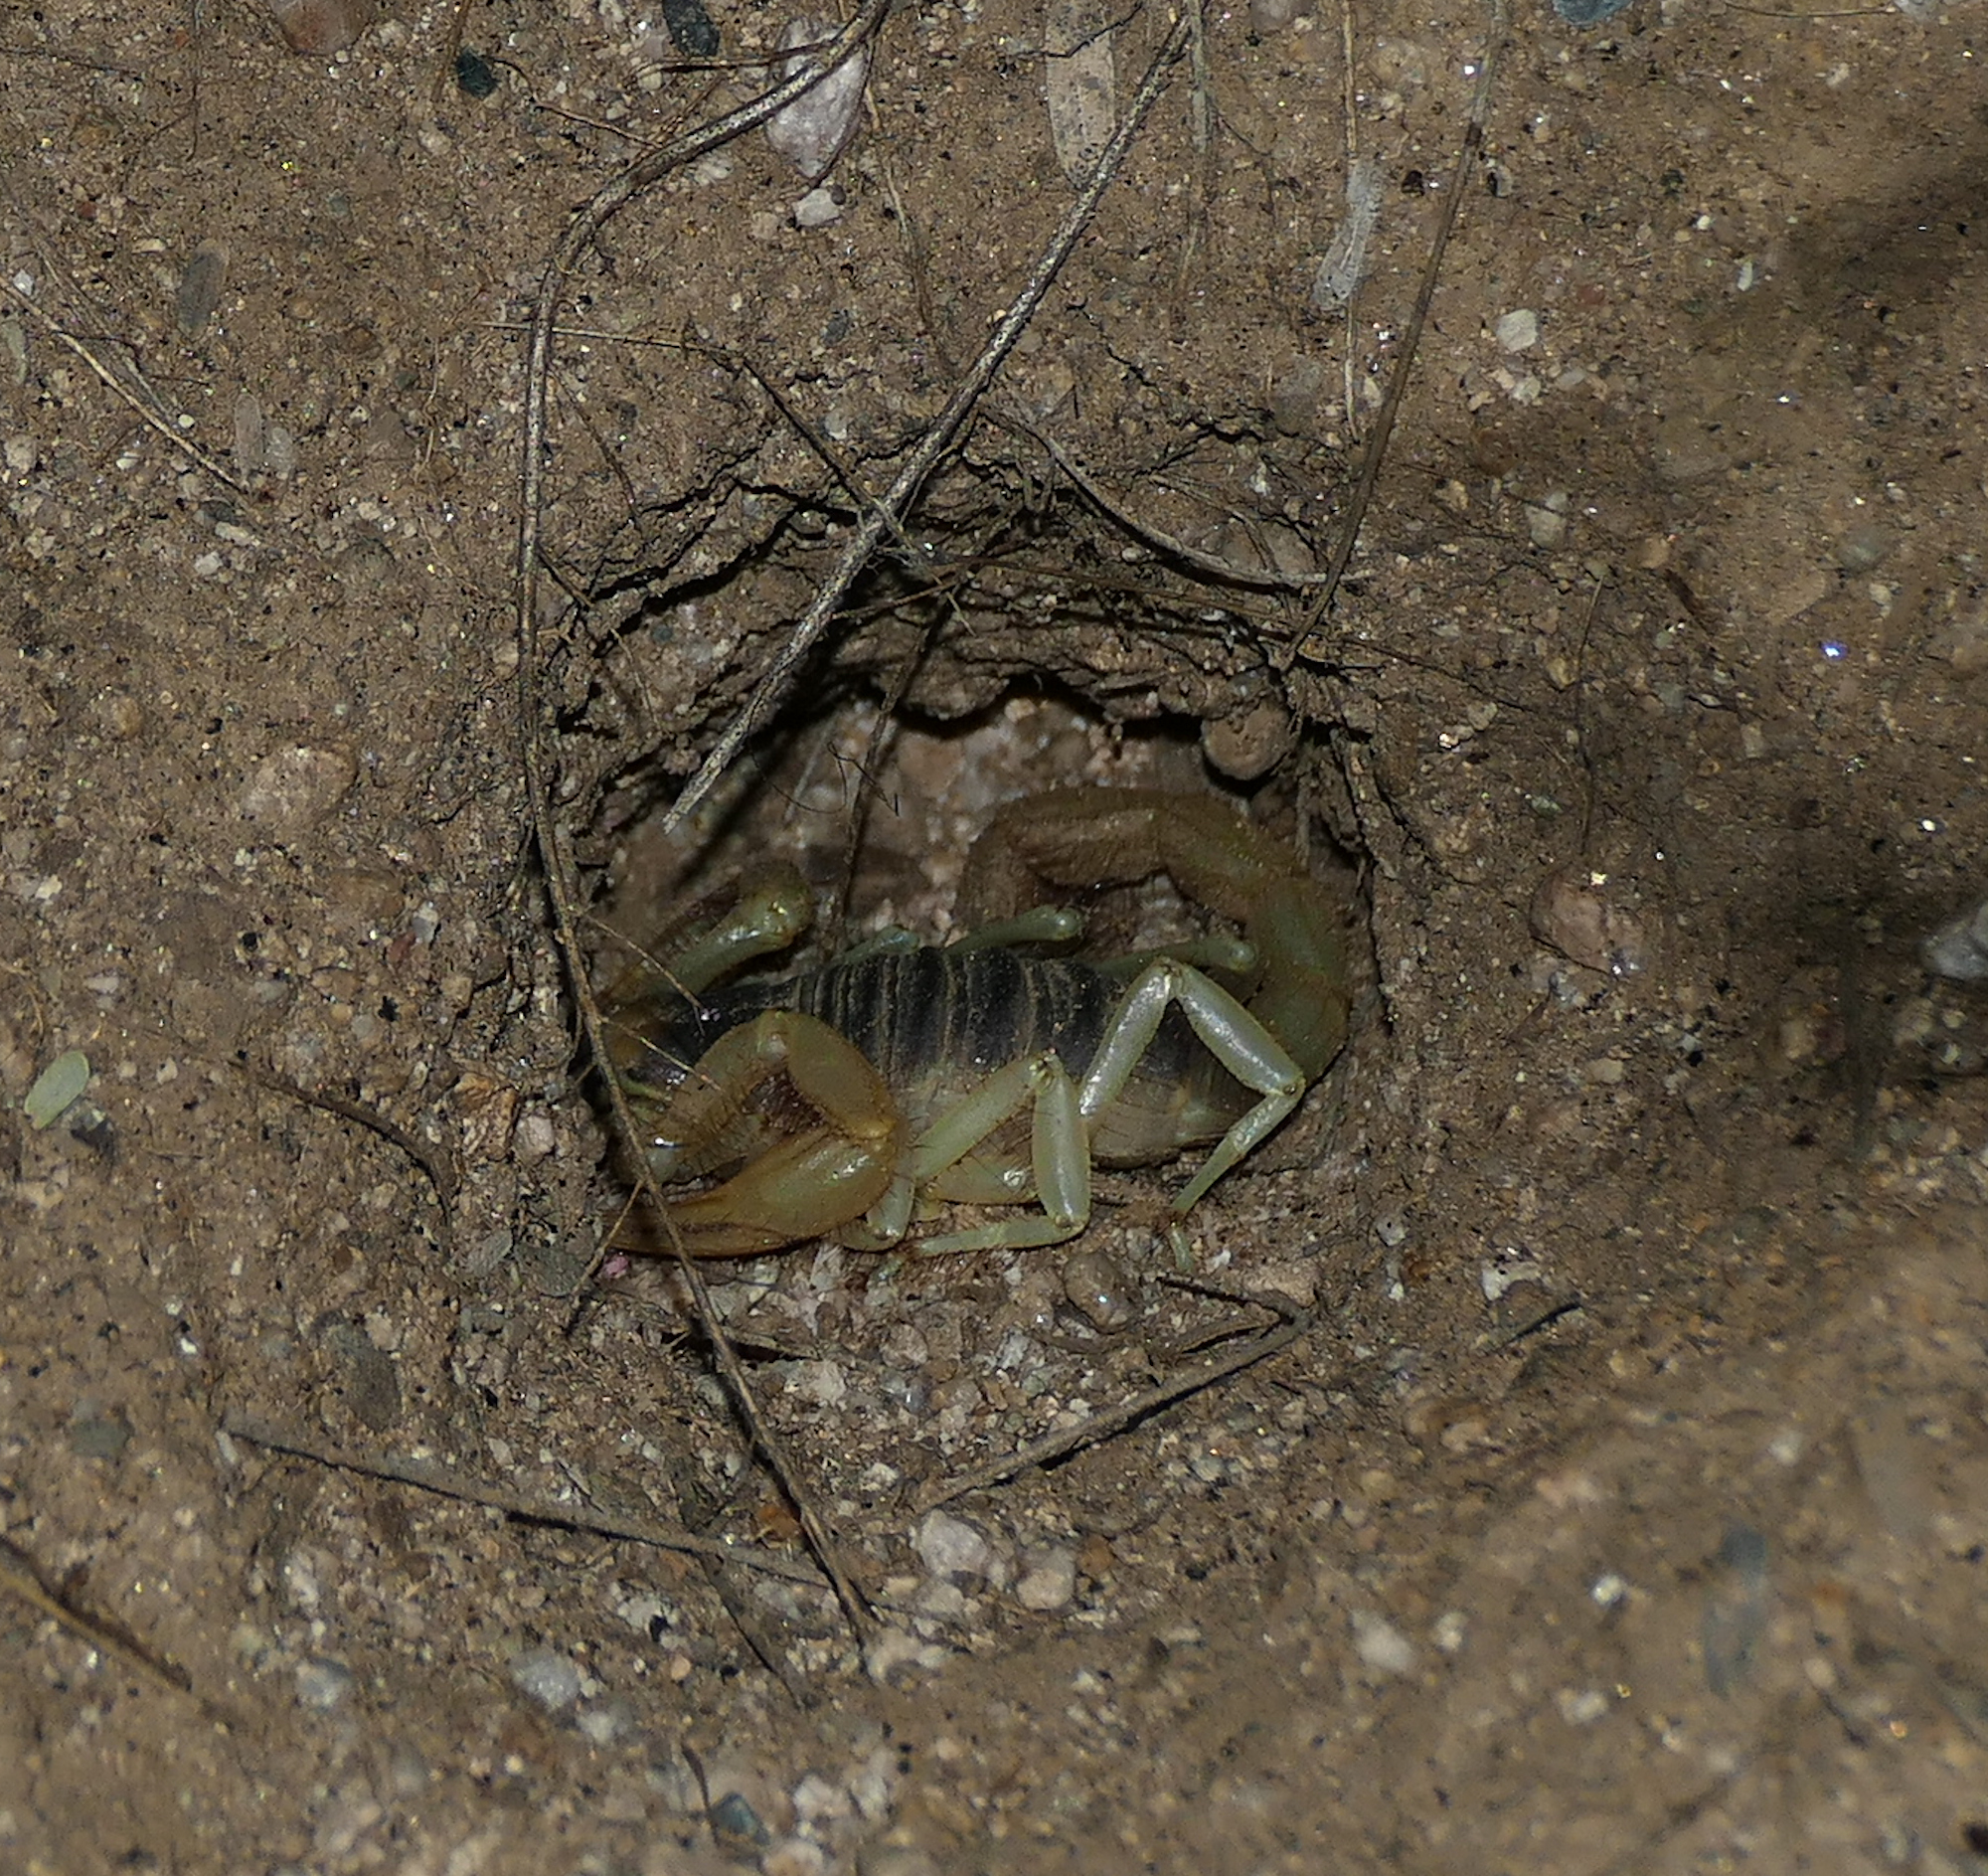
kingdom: Animalia
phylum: Arthropoda
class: Arachnida
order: Scorpiones
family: Hadruridae
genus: Hadrurus
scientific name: Hadrurus arizonensis
